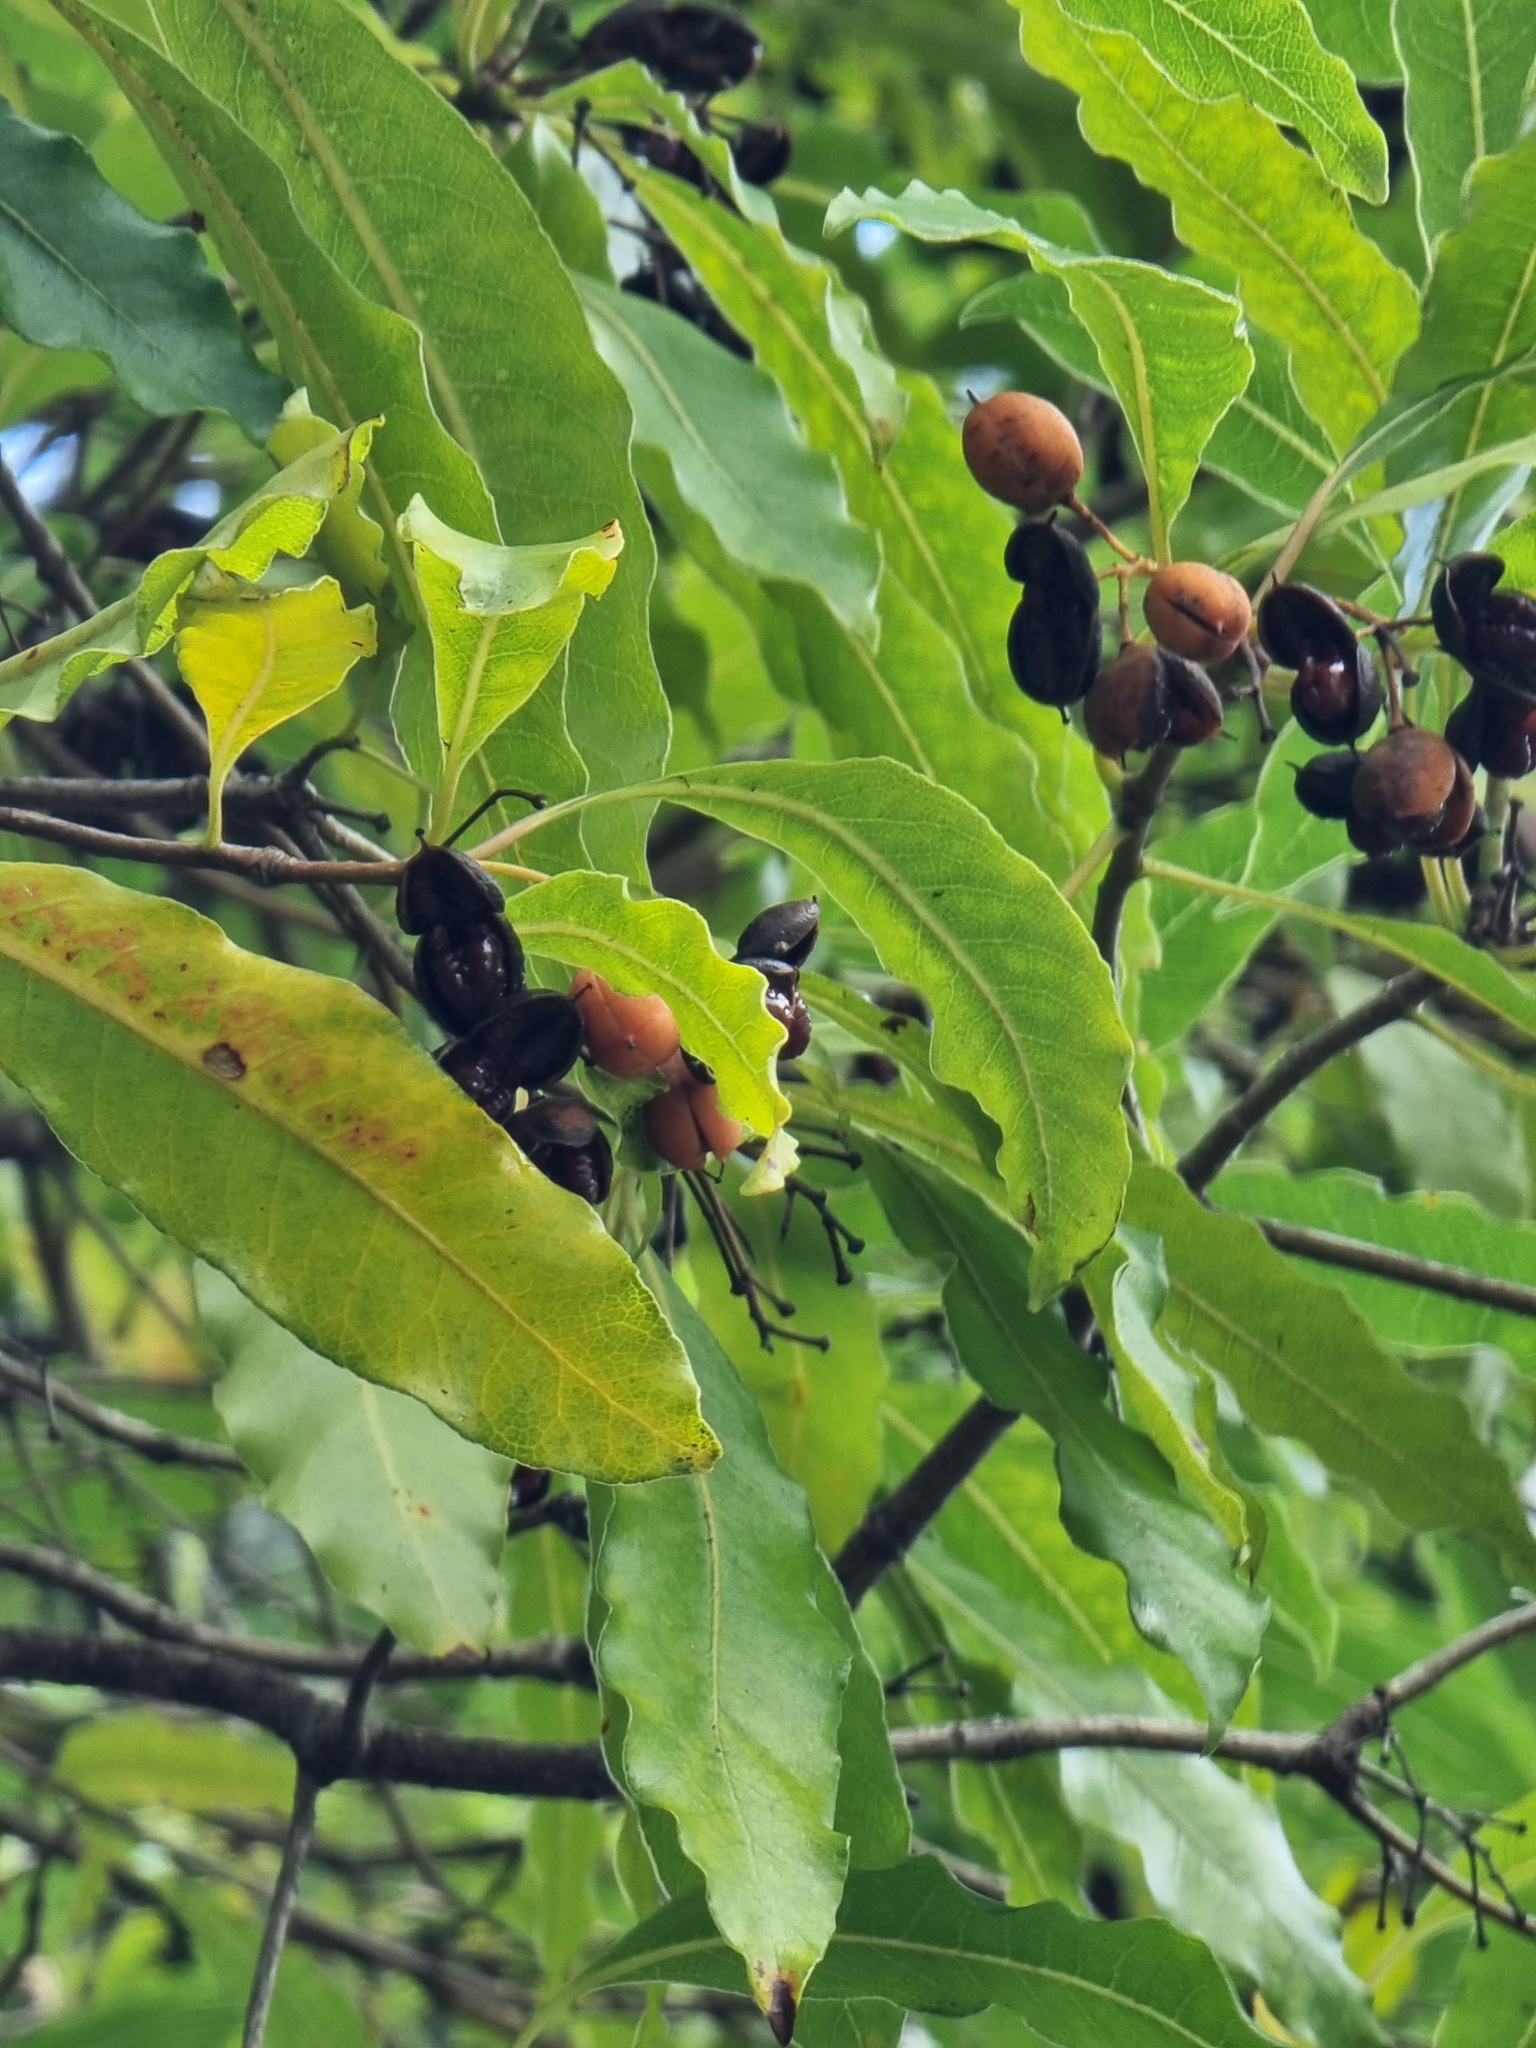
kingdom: Plantae
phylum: Tracheophyta
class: Magnoliopsida
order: Apiales
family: Pittosporaceae
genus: Pittosporum
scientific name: Pittosporum undulatum
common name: Australian cheesewood
